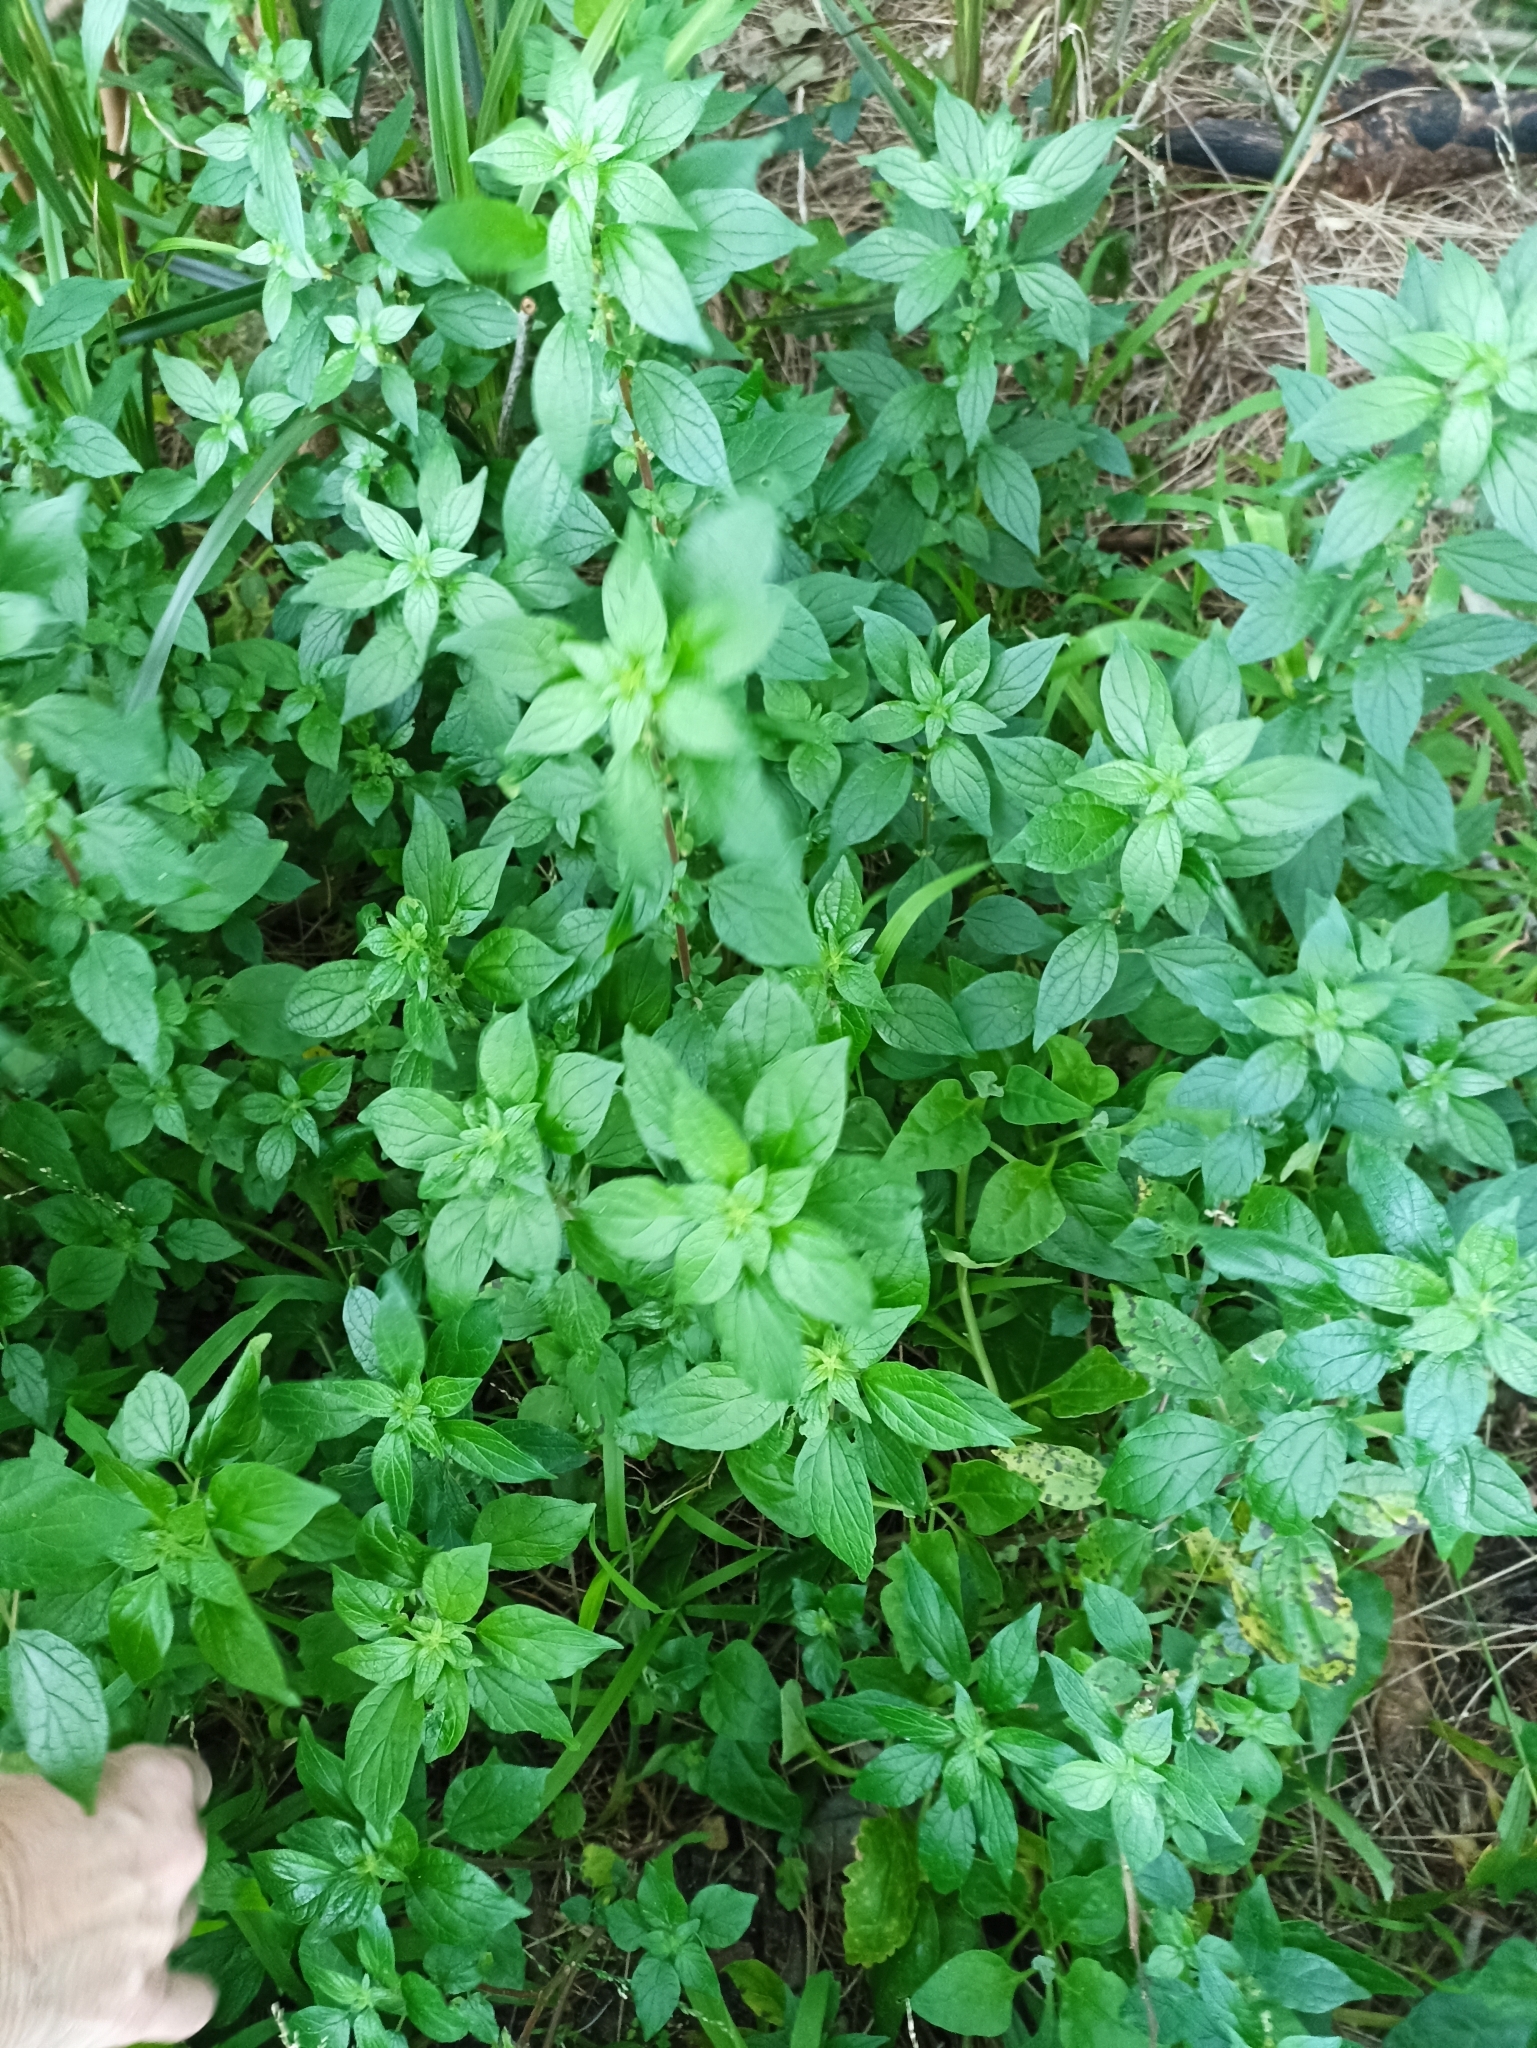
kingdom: Plantae
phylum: Tracheophyta
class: Magnoliopsida
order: Rosales
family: Urticaceae
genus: Parietaria
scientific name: Parietaria judaica
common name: Pellitory-of-the-wall
